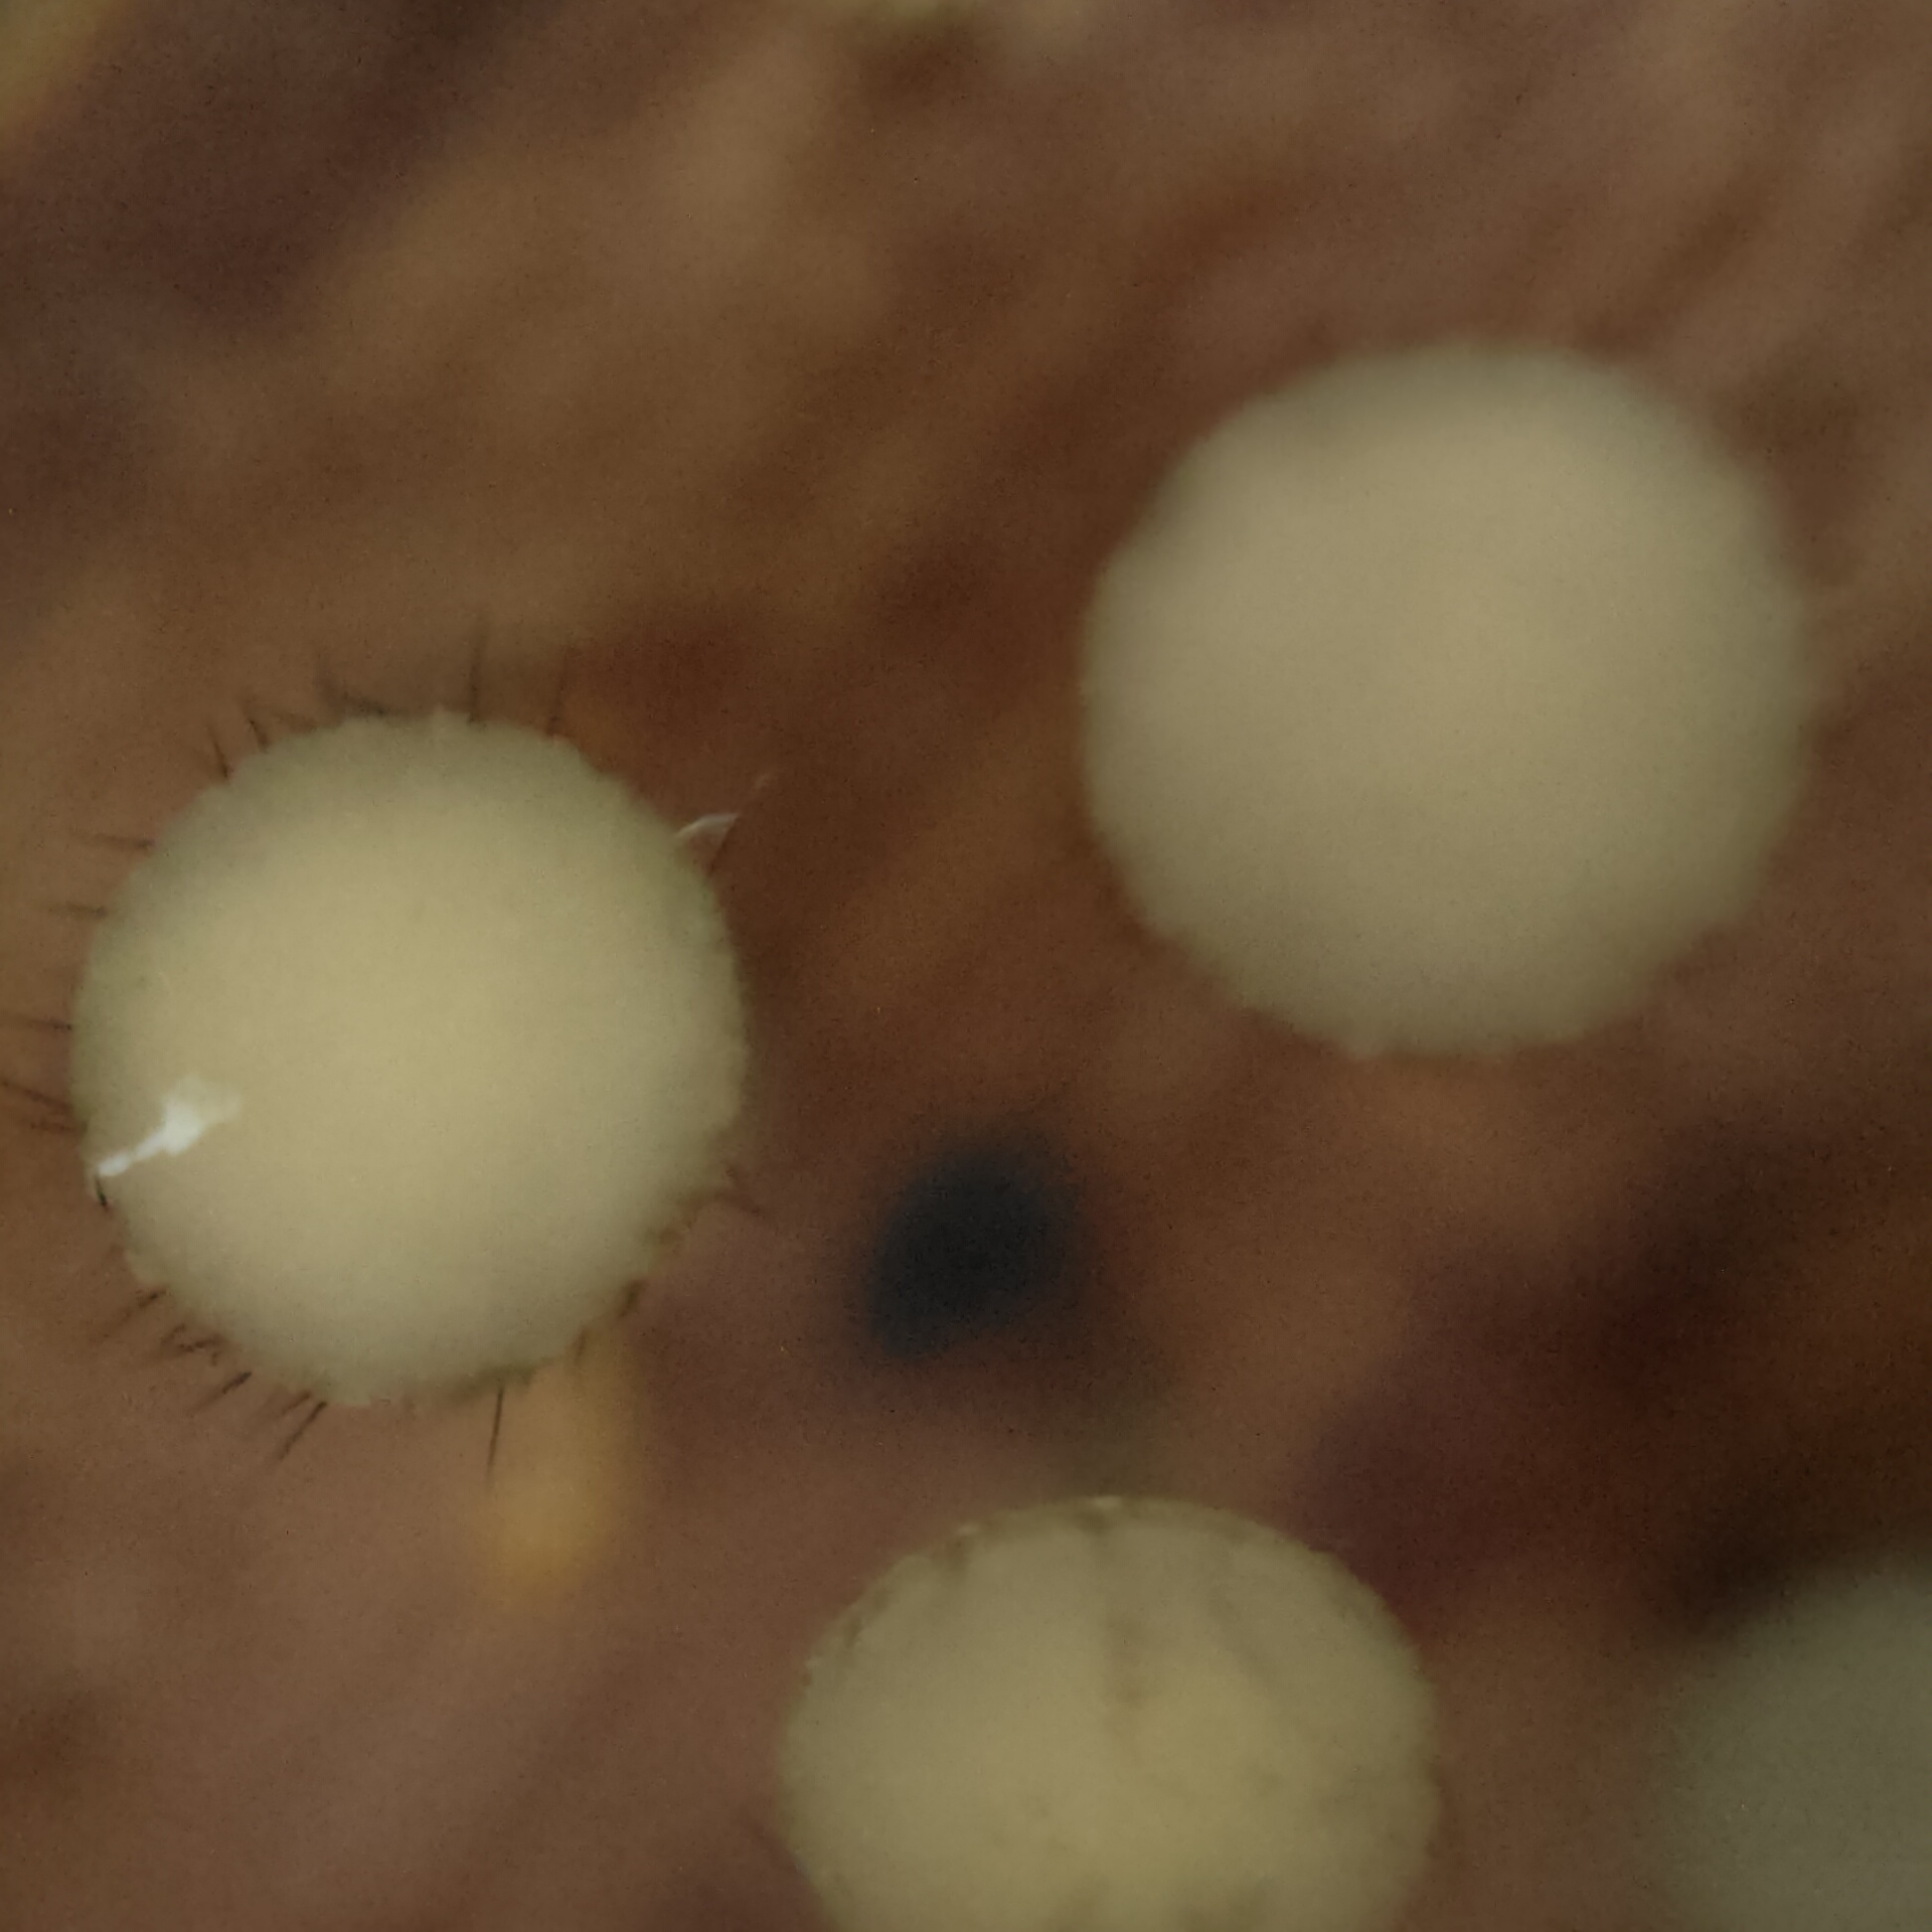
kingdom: Fungi
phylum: Ascomycota
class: Leotiomycetes
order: Helotiales
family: Helotiaceae
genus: Hymenotorrendiella
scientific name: Hymenotorrendiella eucalypti
